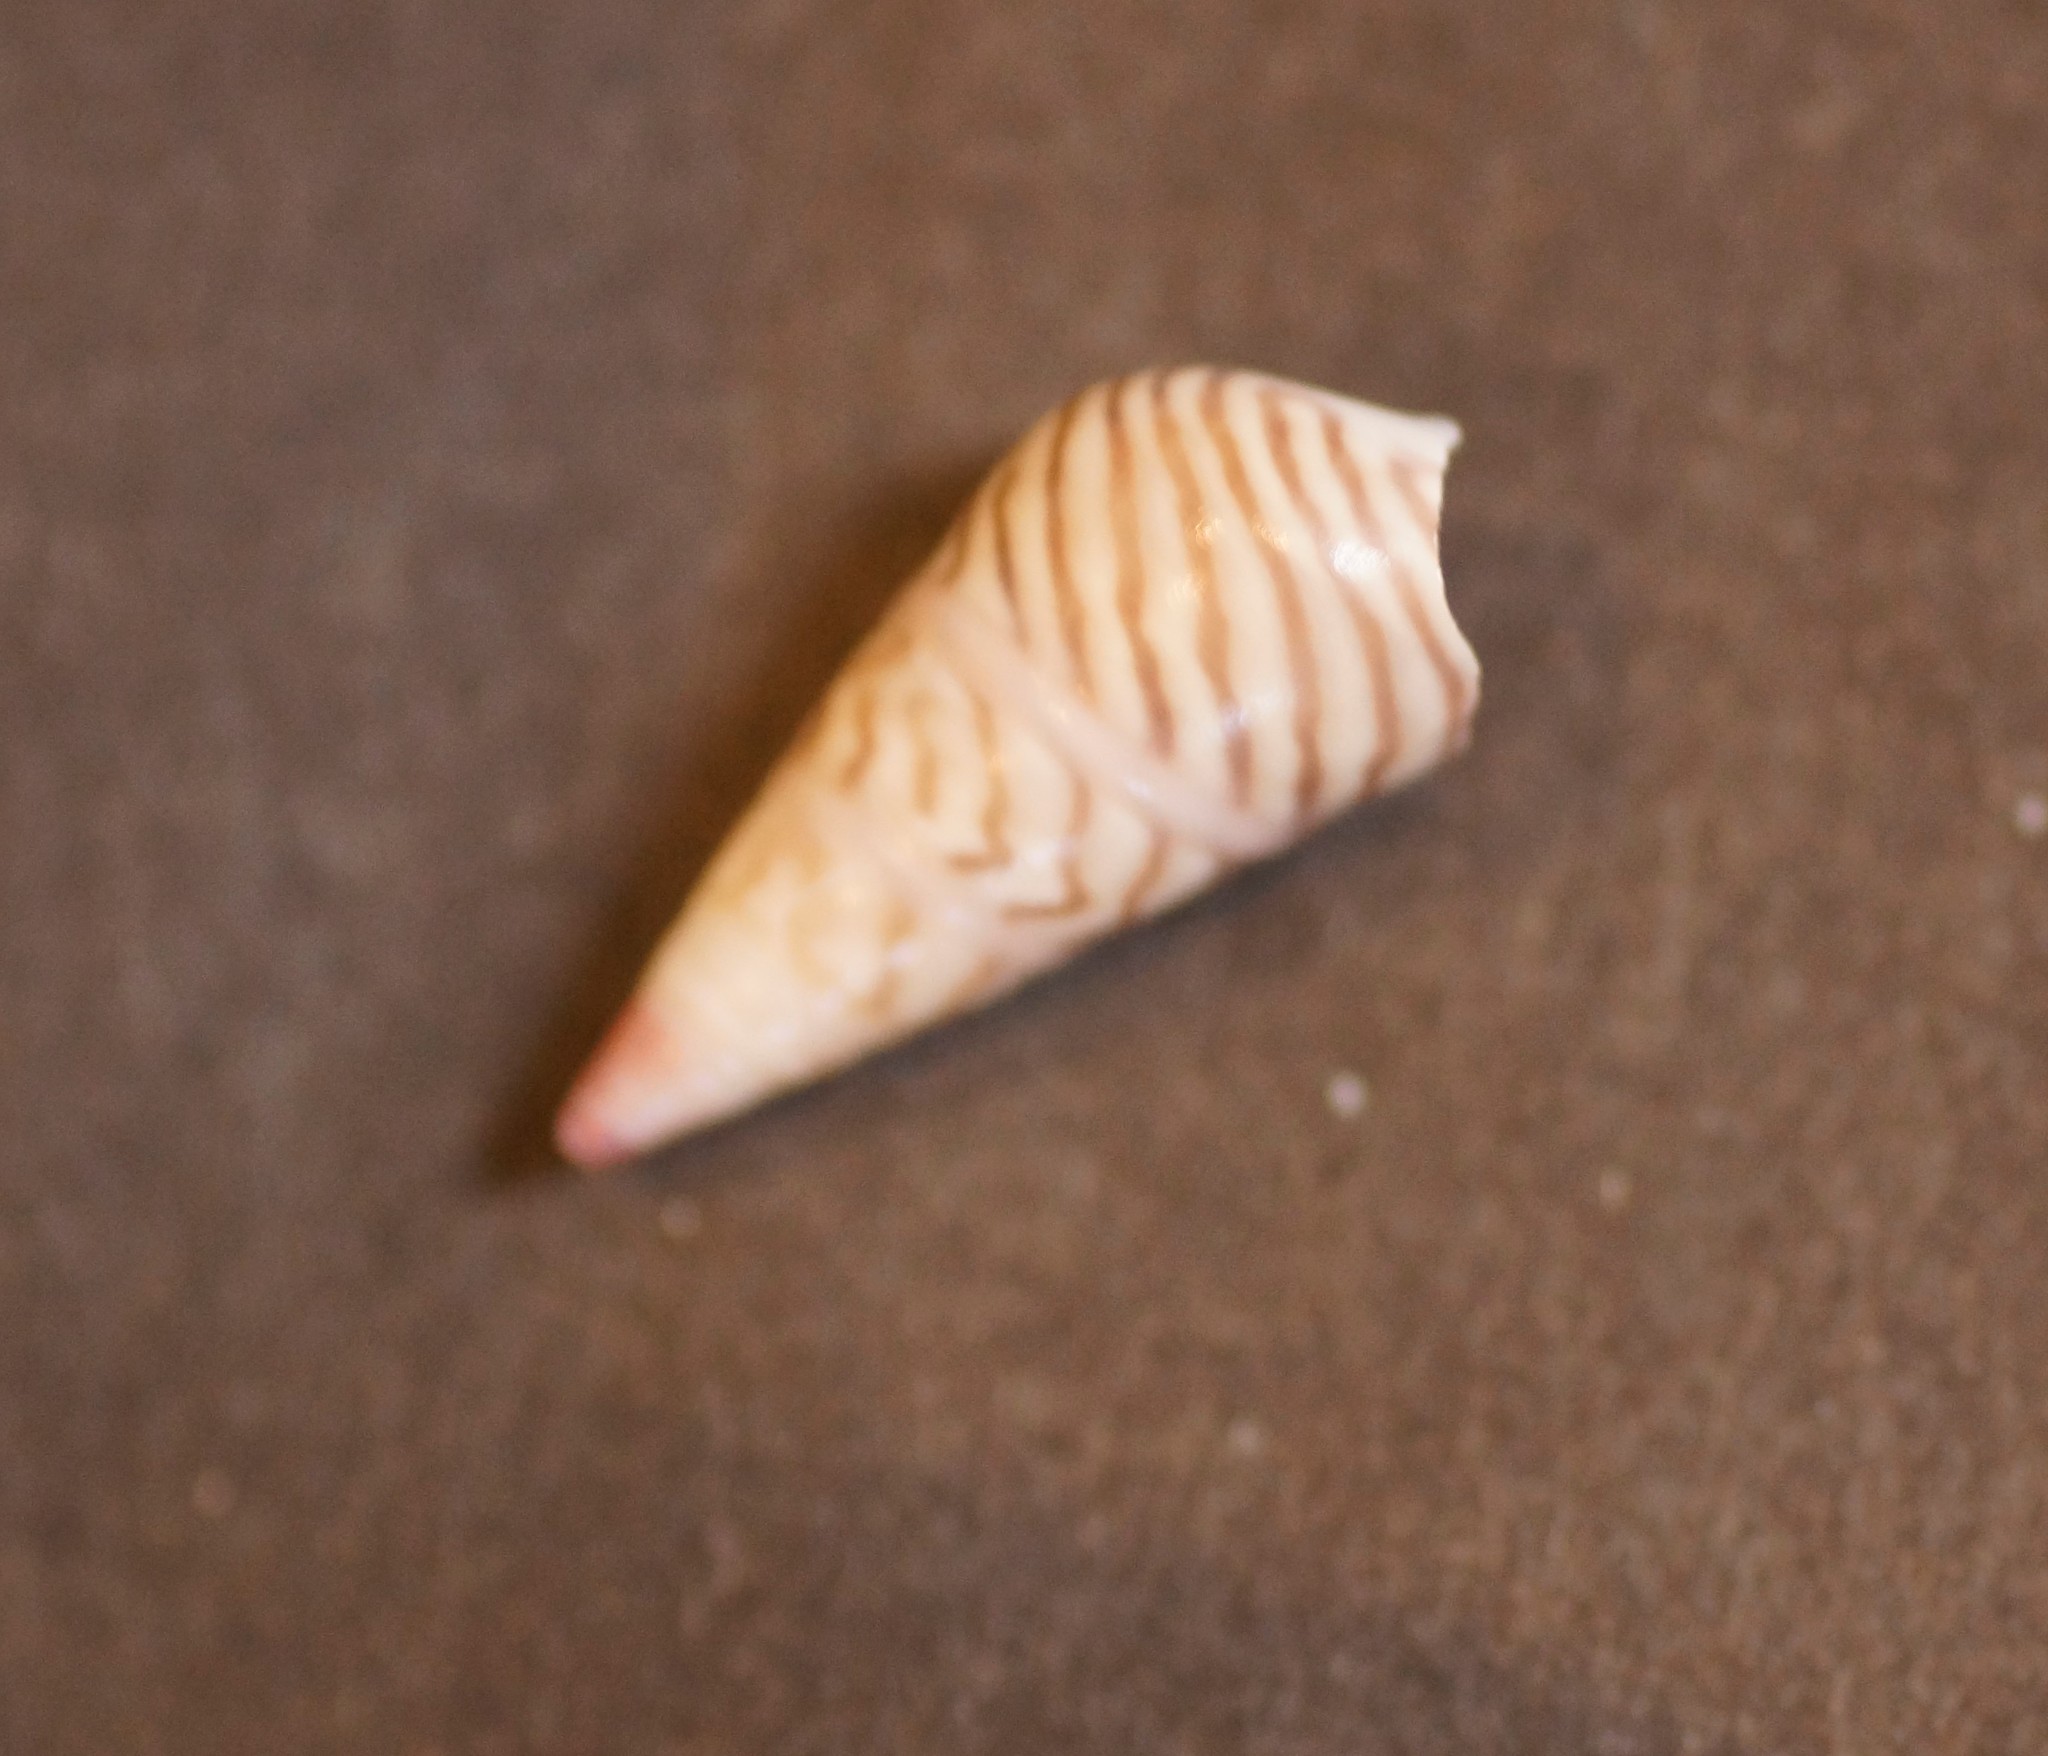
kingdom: Animalia
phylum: Mollusca
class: Gastropoda
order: Trochida
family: Trochidae
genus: Bankivia
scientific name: Bankivia fasciata
